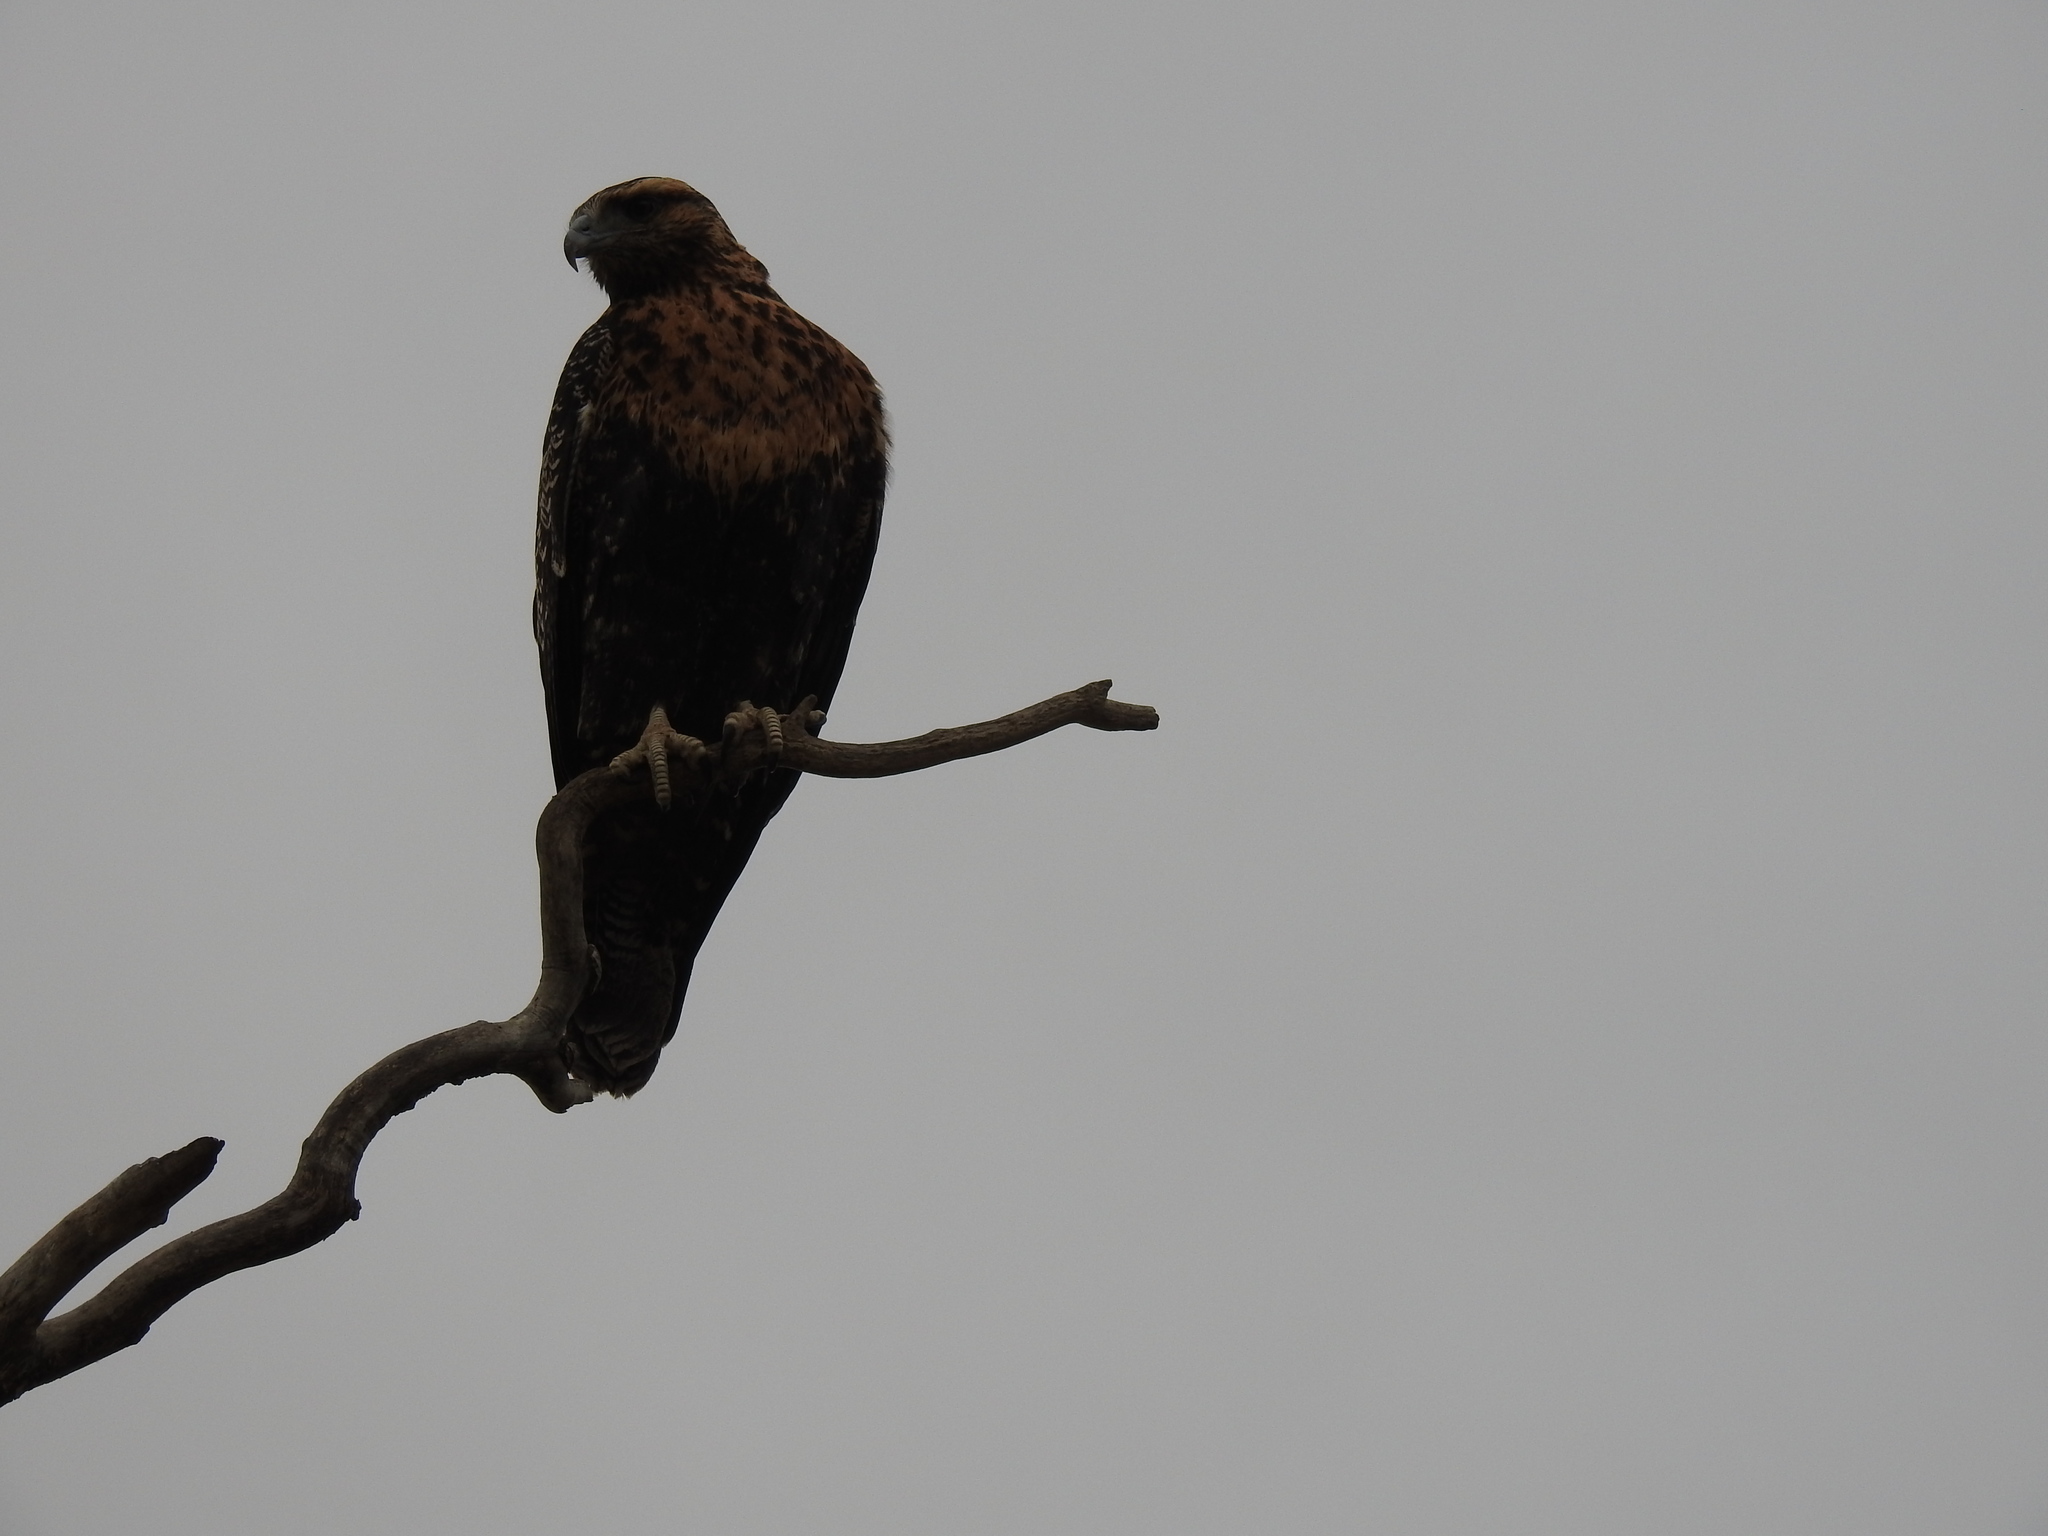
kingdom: Animalia
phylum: Chordata
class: Aves
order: Accipitriformes
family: Accipitridae
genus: Geranoaetus
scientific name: Geranoaetus melanoleucus
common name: Black-chested buzzard-eagle
